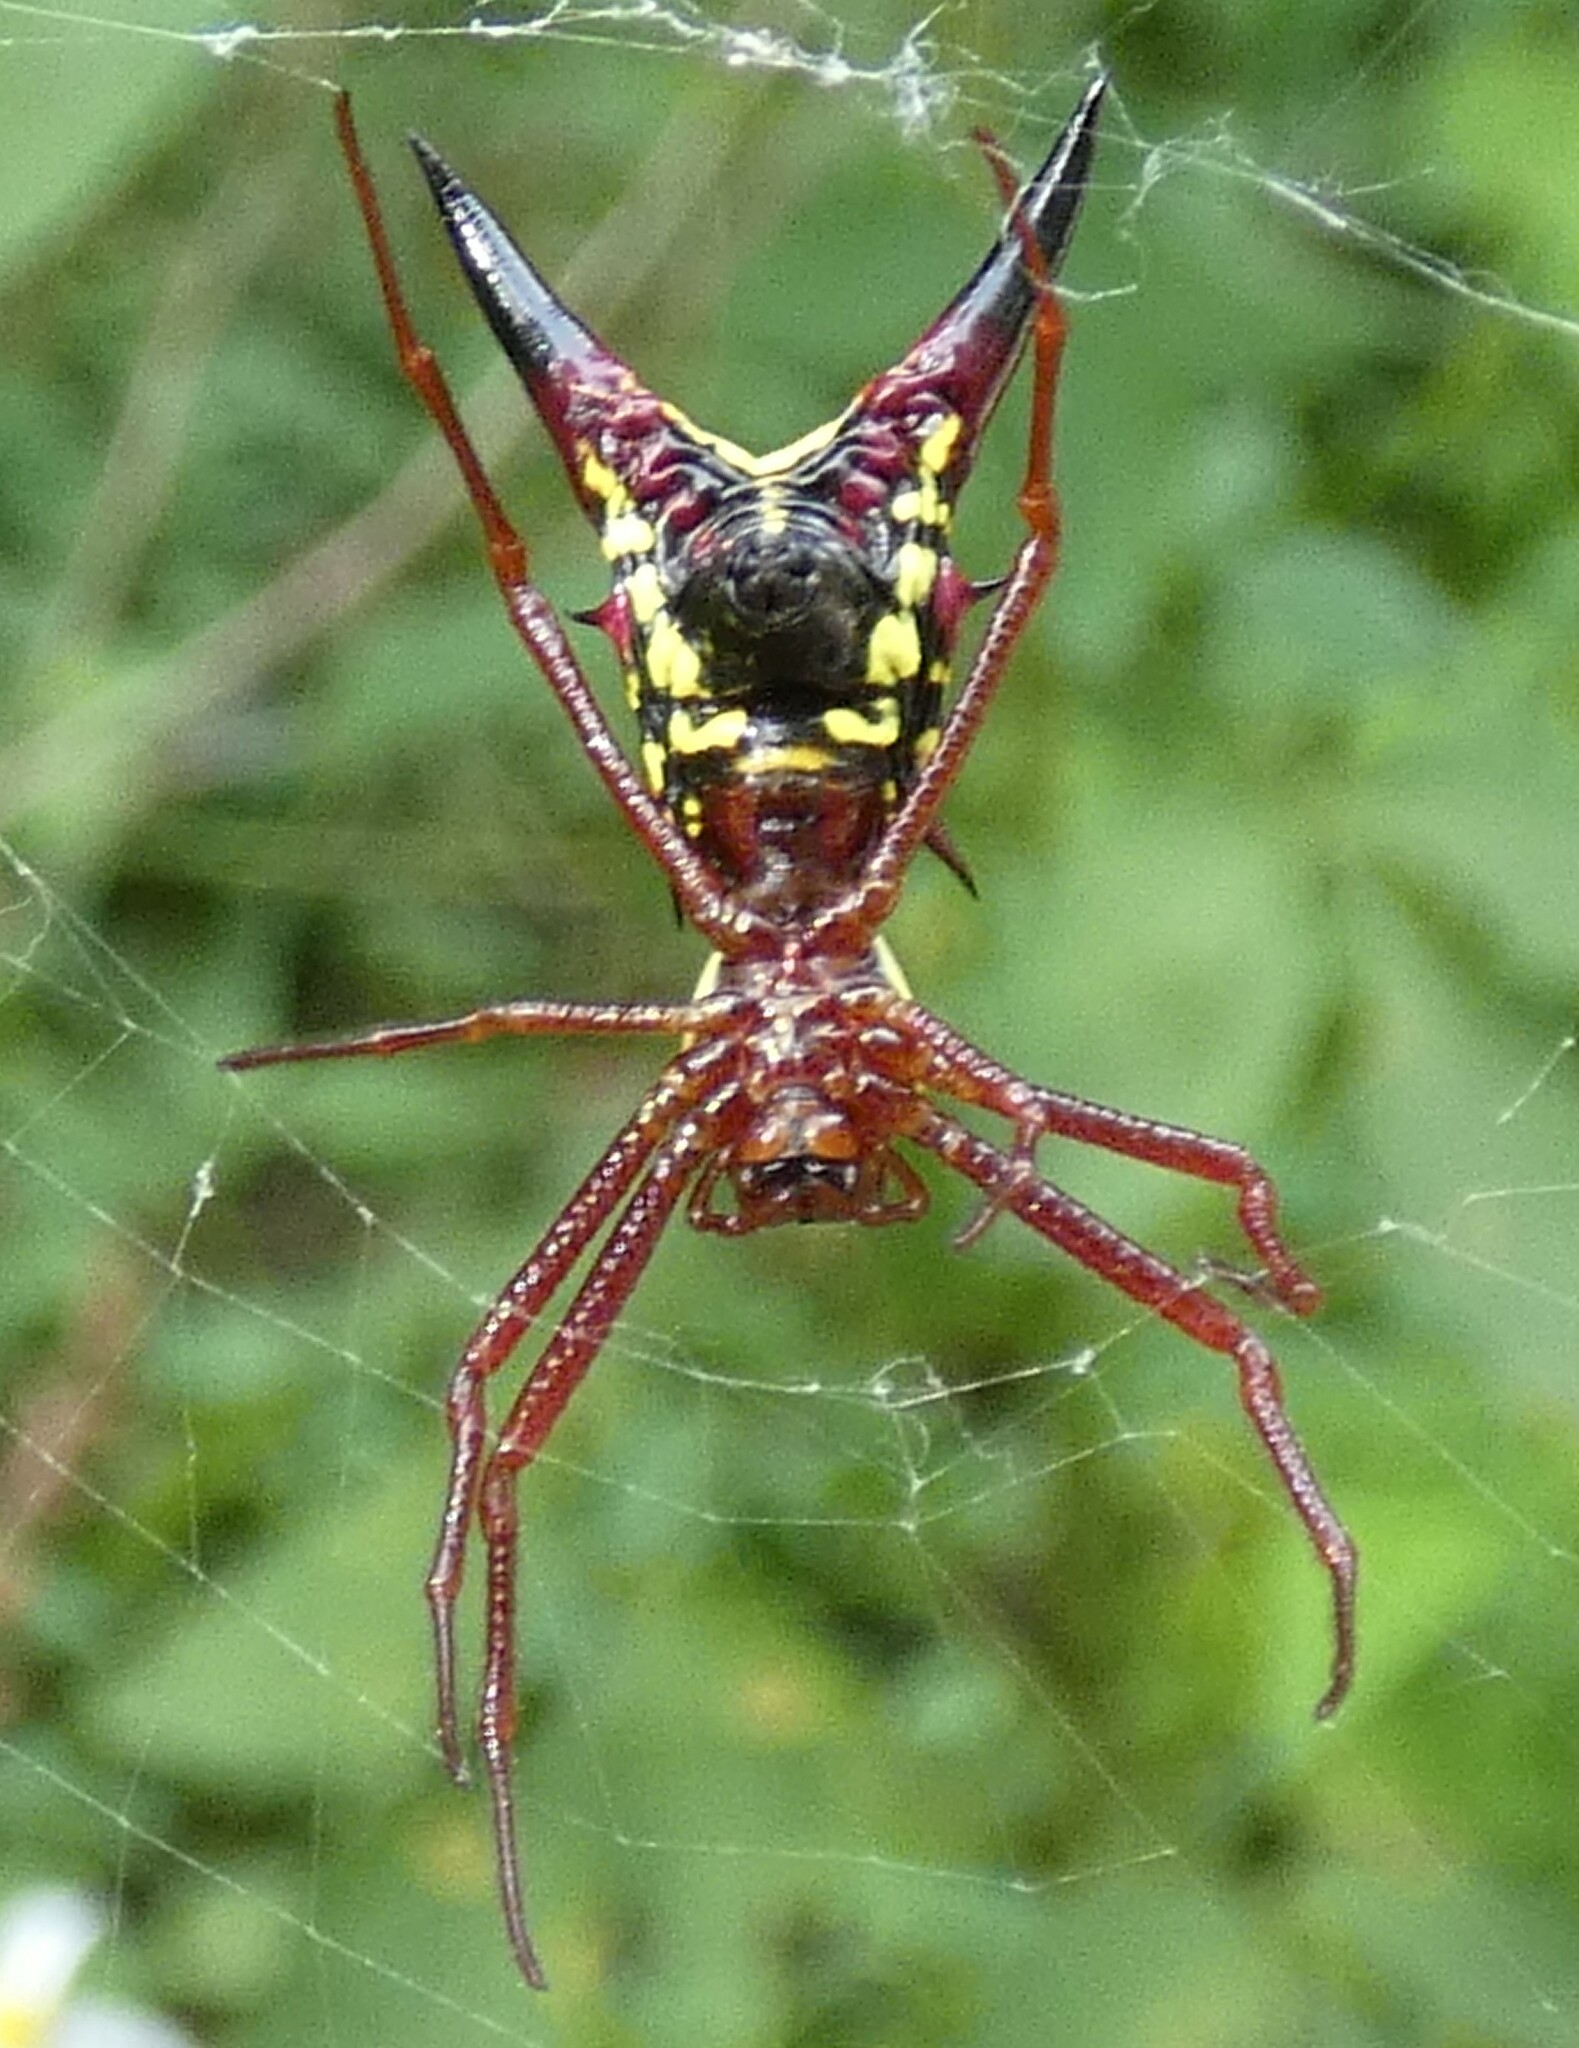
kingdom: Animalia
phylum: Arthropoda
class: Arachnida
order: Araneae
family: Araneidae
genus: Micrathena
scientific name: Micrathena sagittata
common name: Orb weavers
